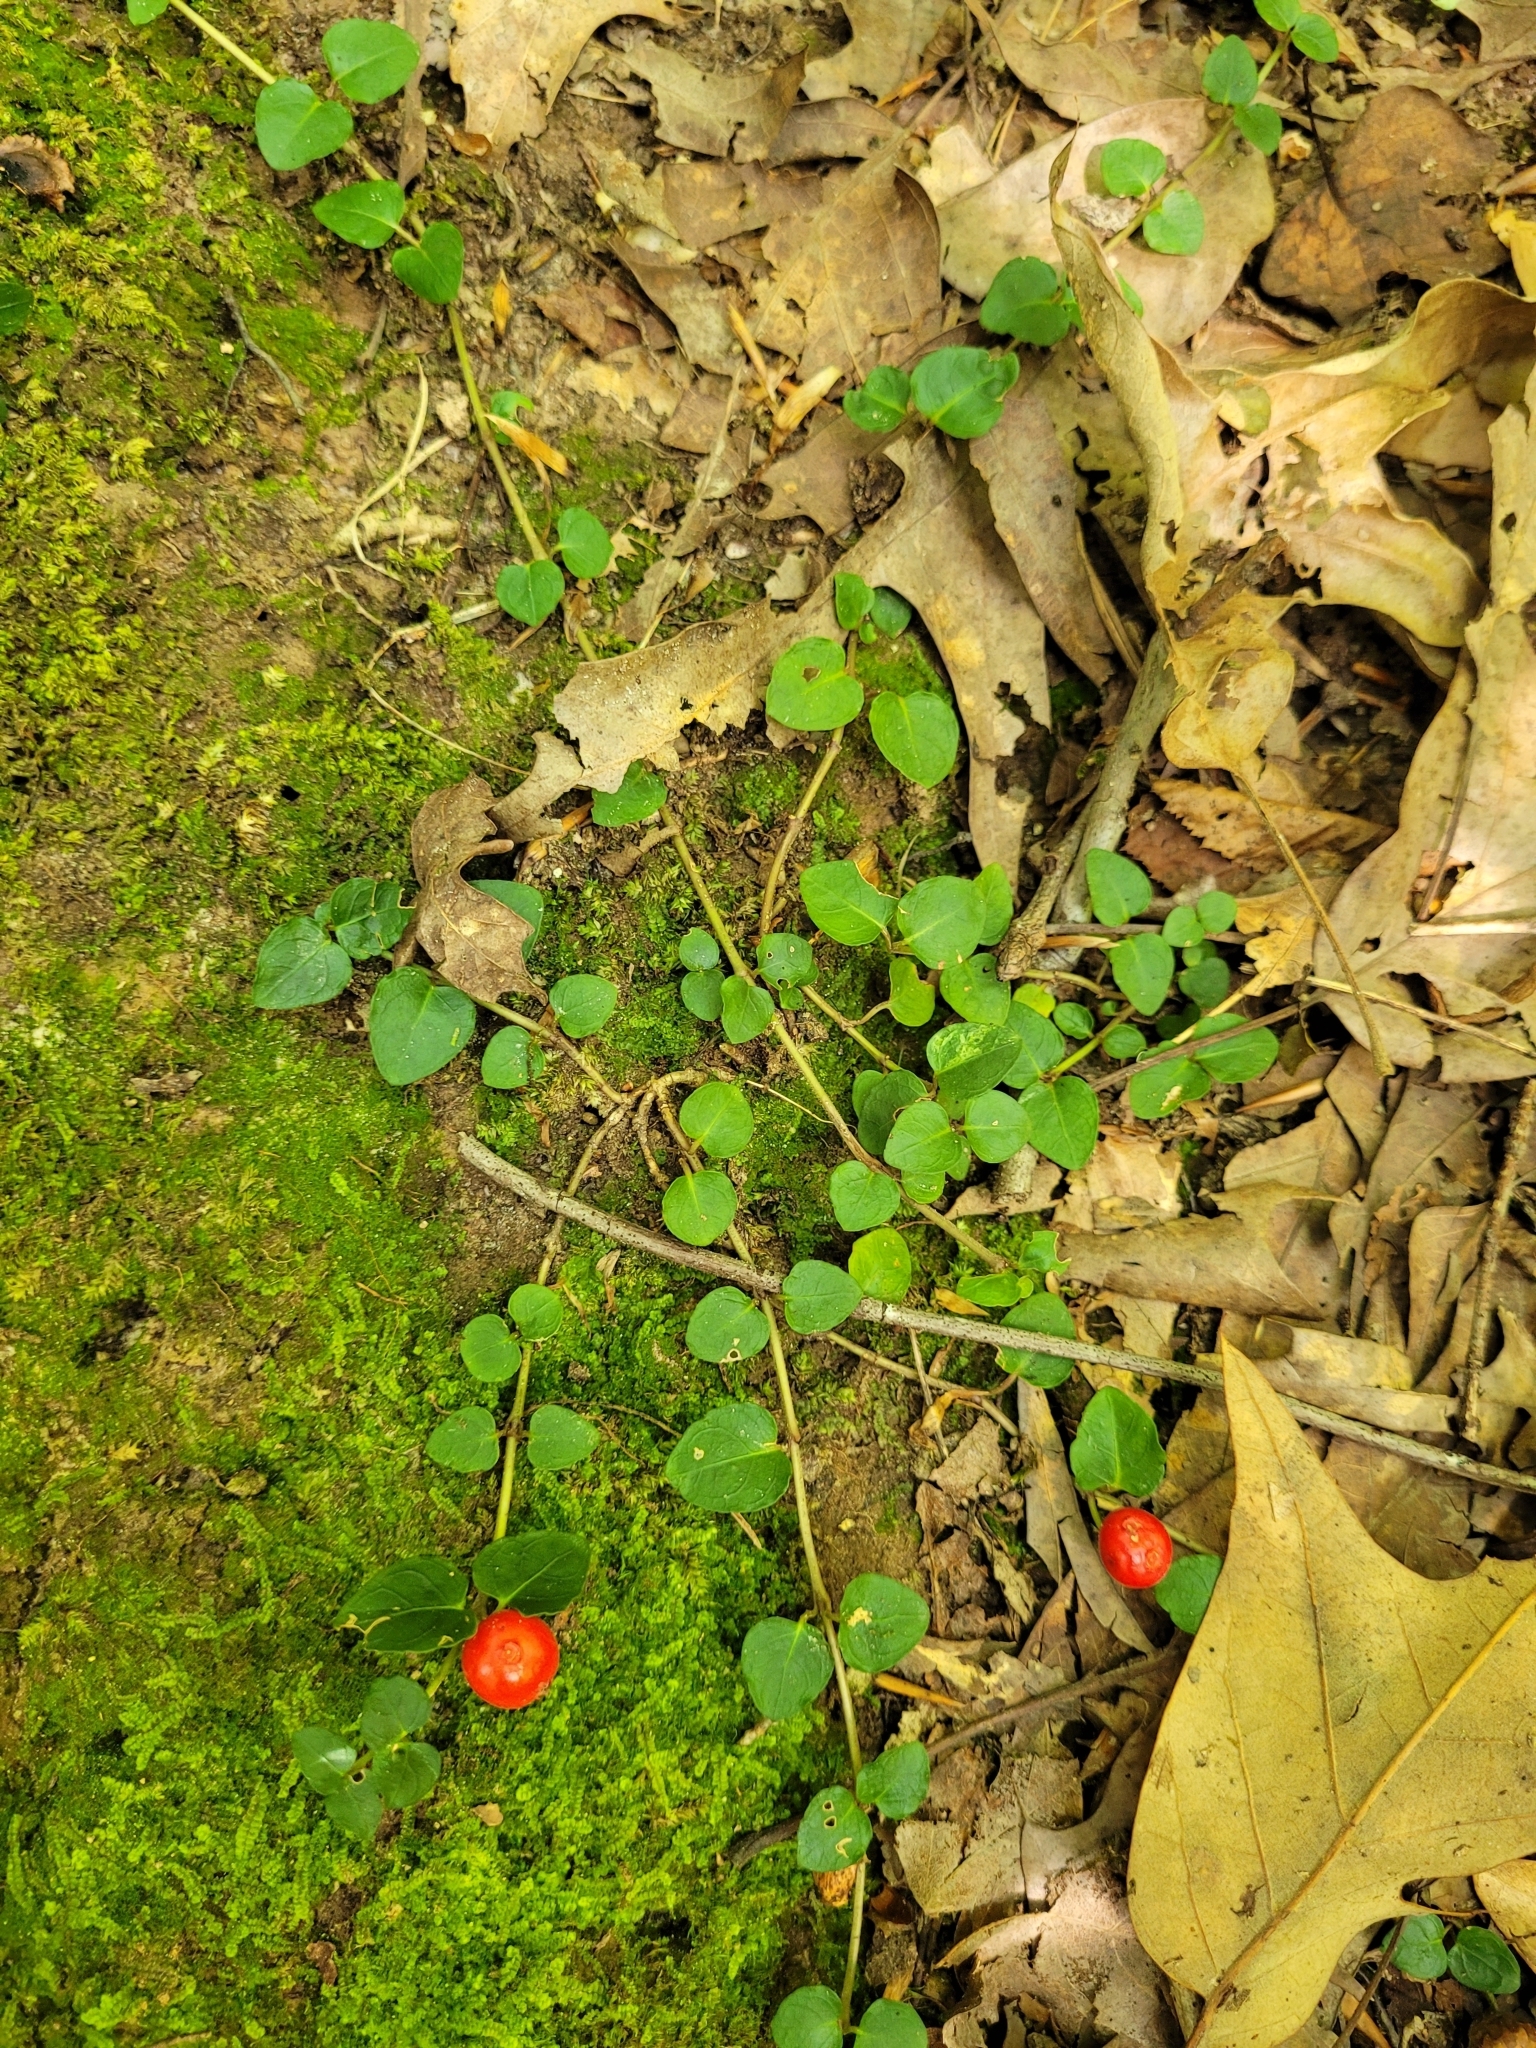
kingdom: Plantae
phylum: Tracheophyta
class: Magnoliopsida
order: Gentianales
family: Rubiaceae
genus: Mitchella
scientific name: Mitchella repens
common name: Partridge-berry
